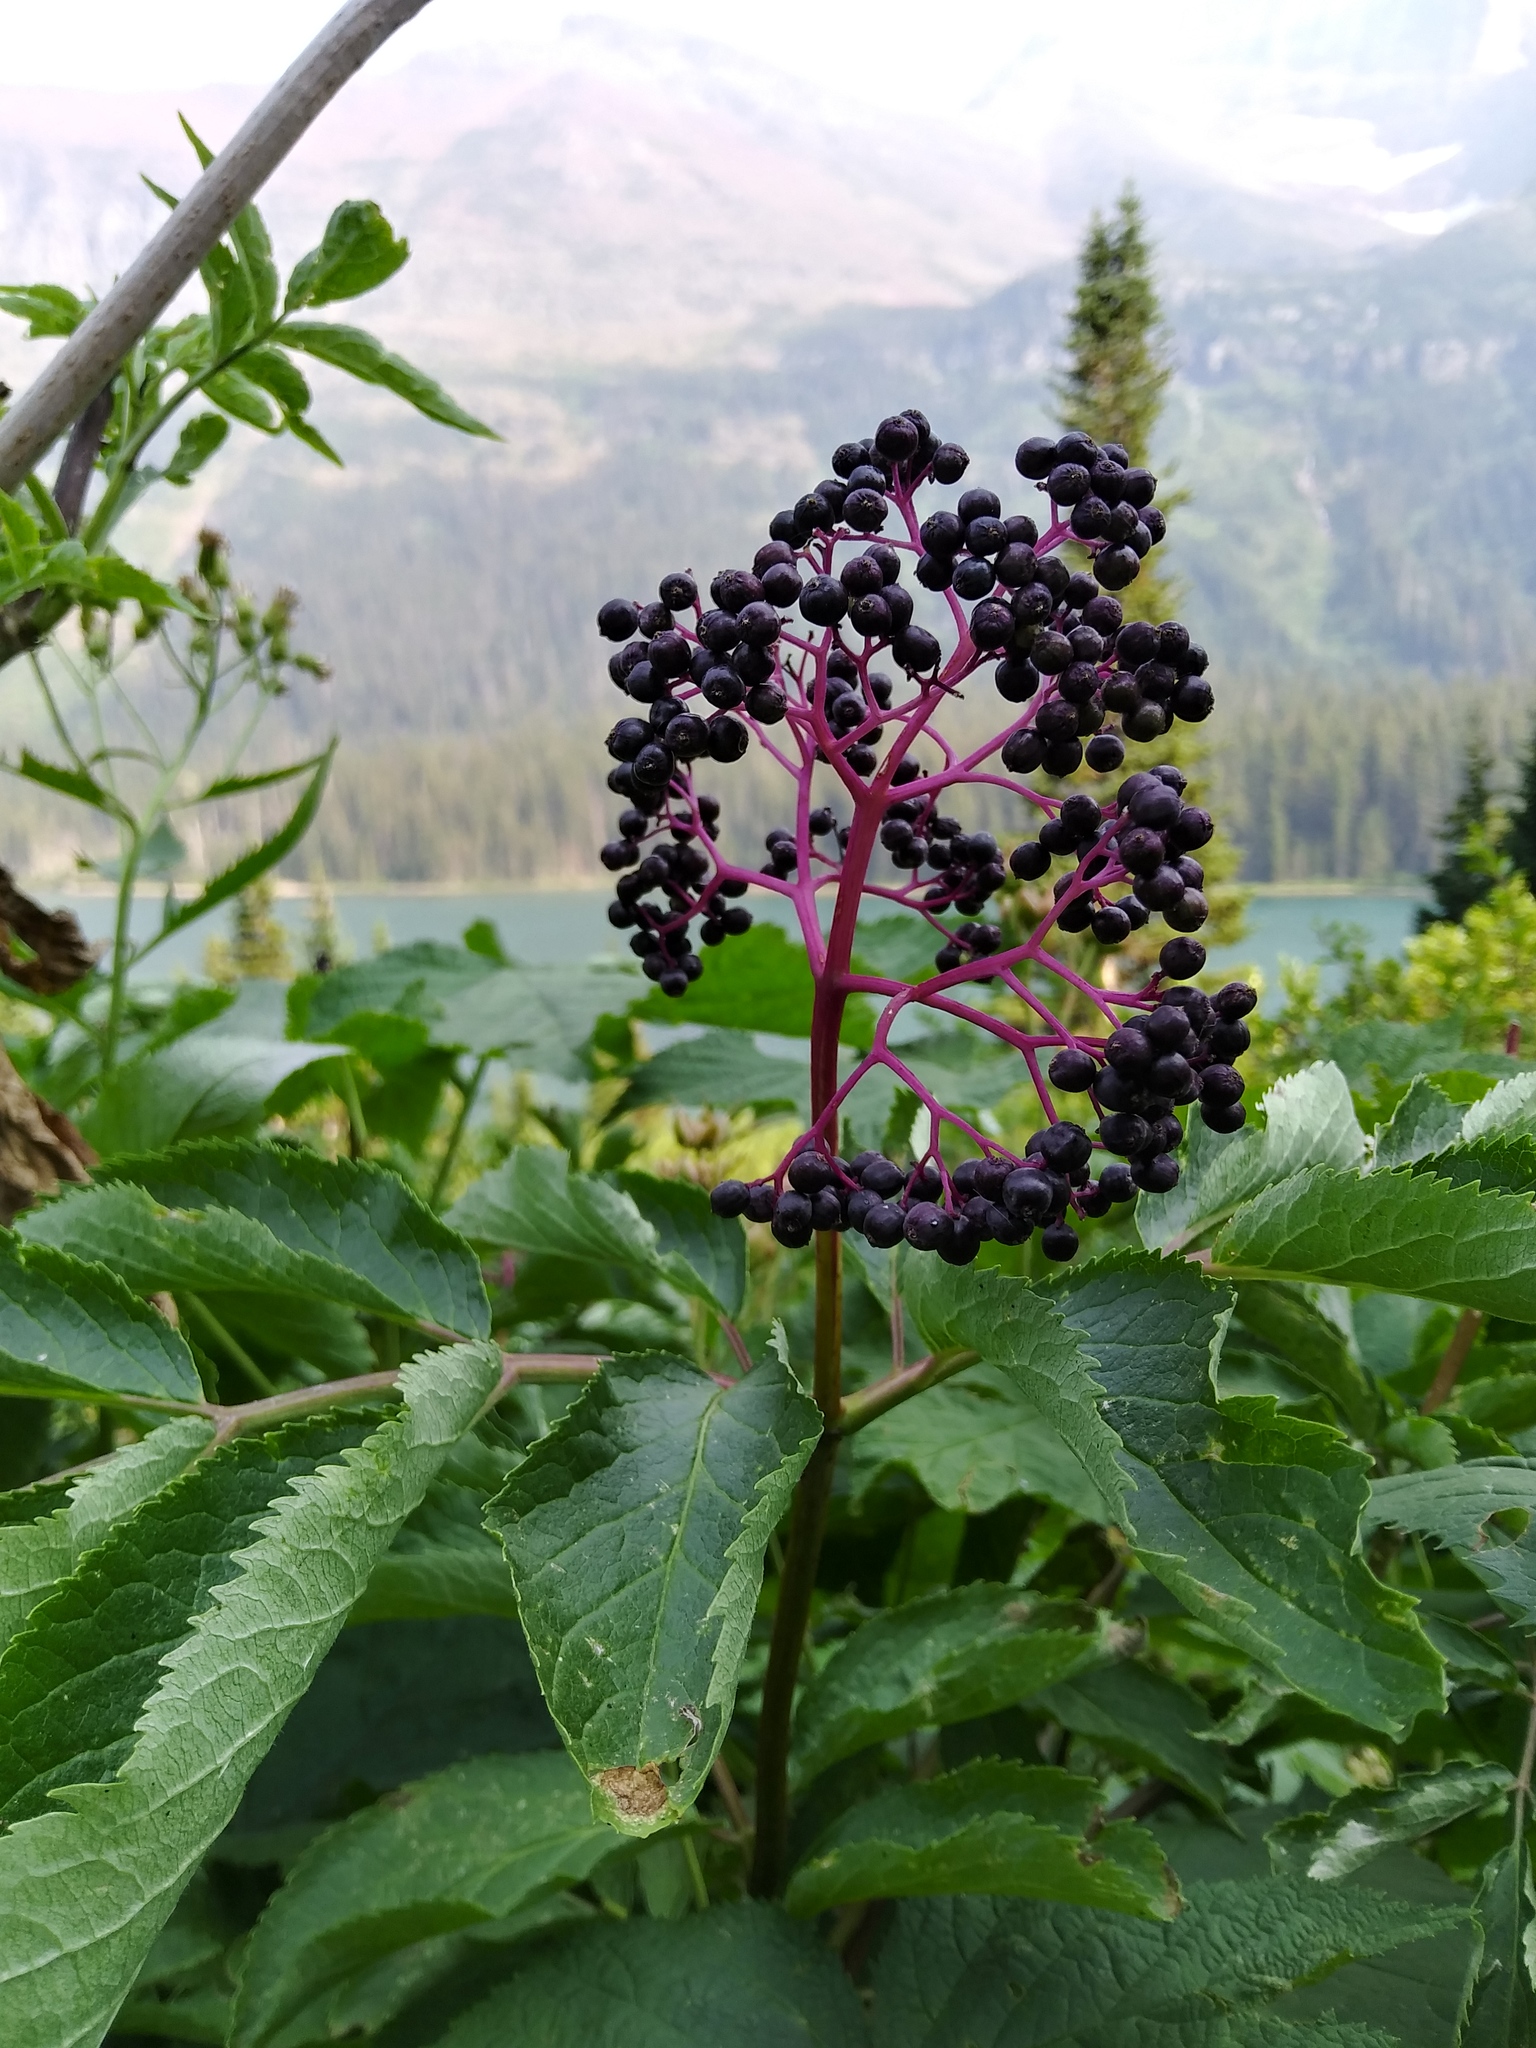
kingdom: Plantae
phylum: Tracheophyta
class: Magnoliopsida
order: Dipsacales
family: Viburnaceae
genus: Sambucus
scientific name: Sambucus racemosa
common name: Red-berried elder
